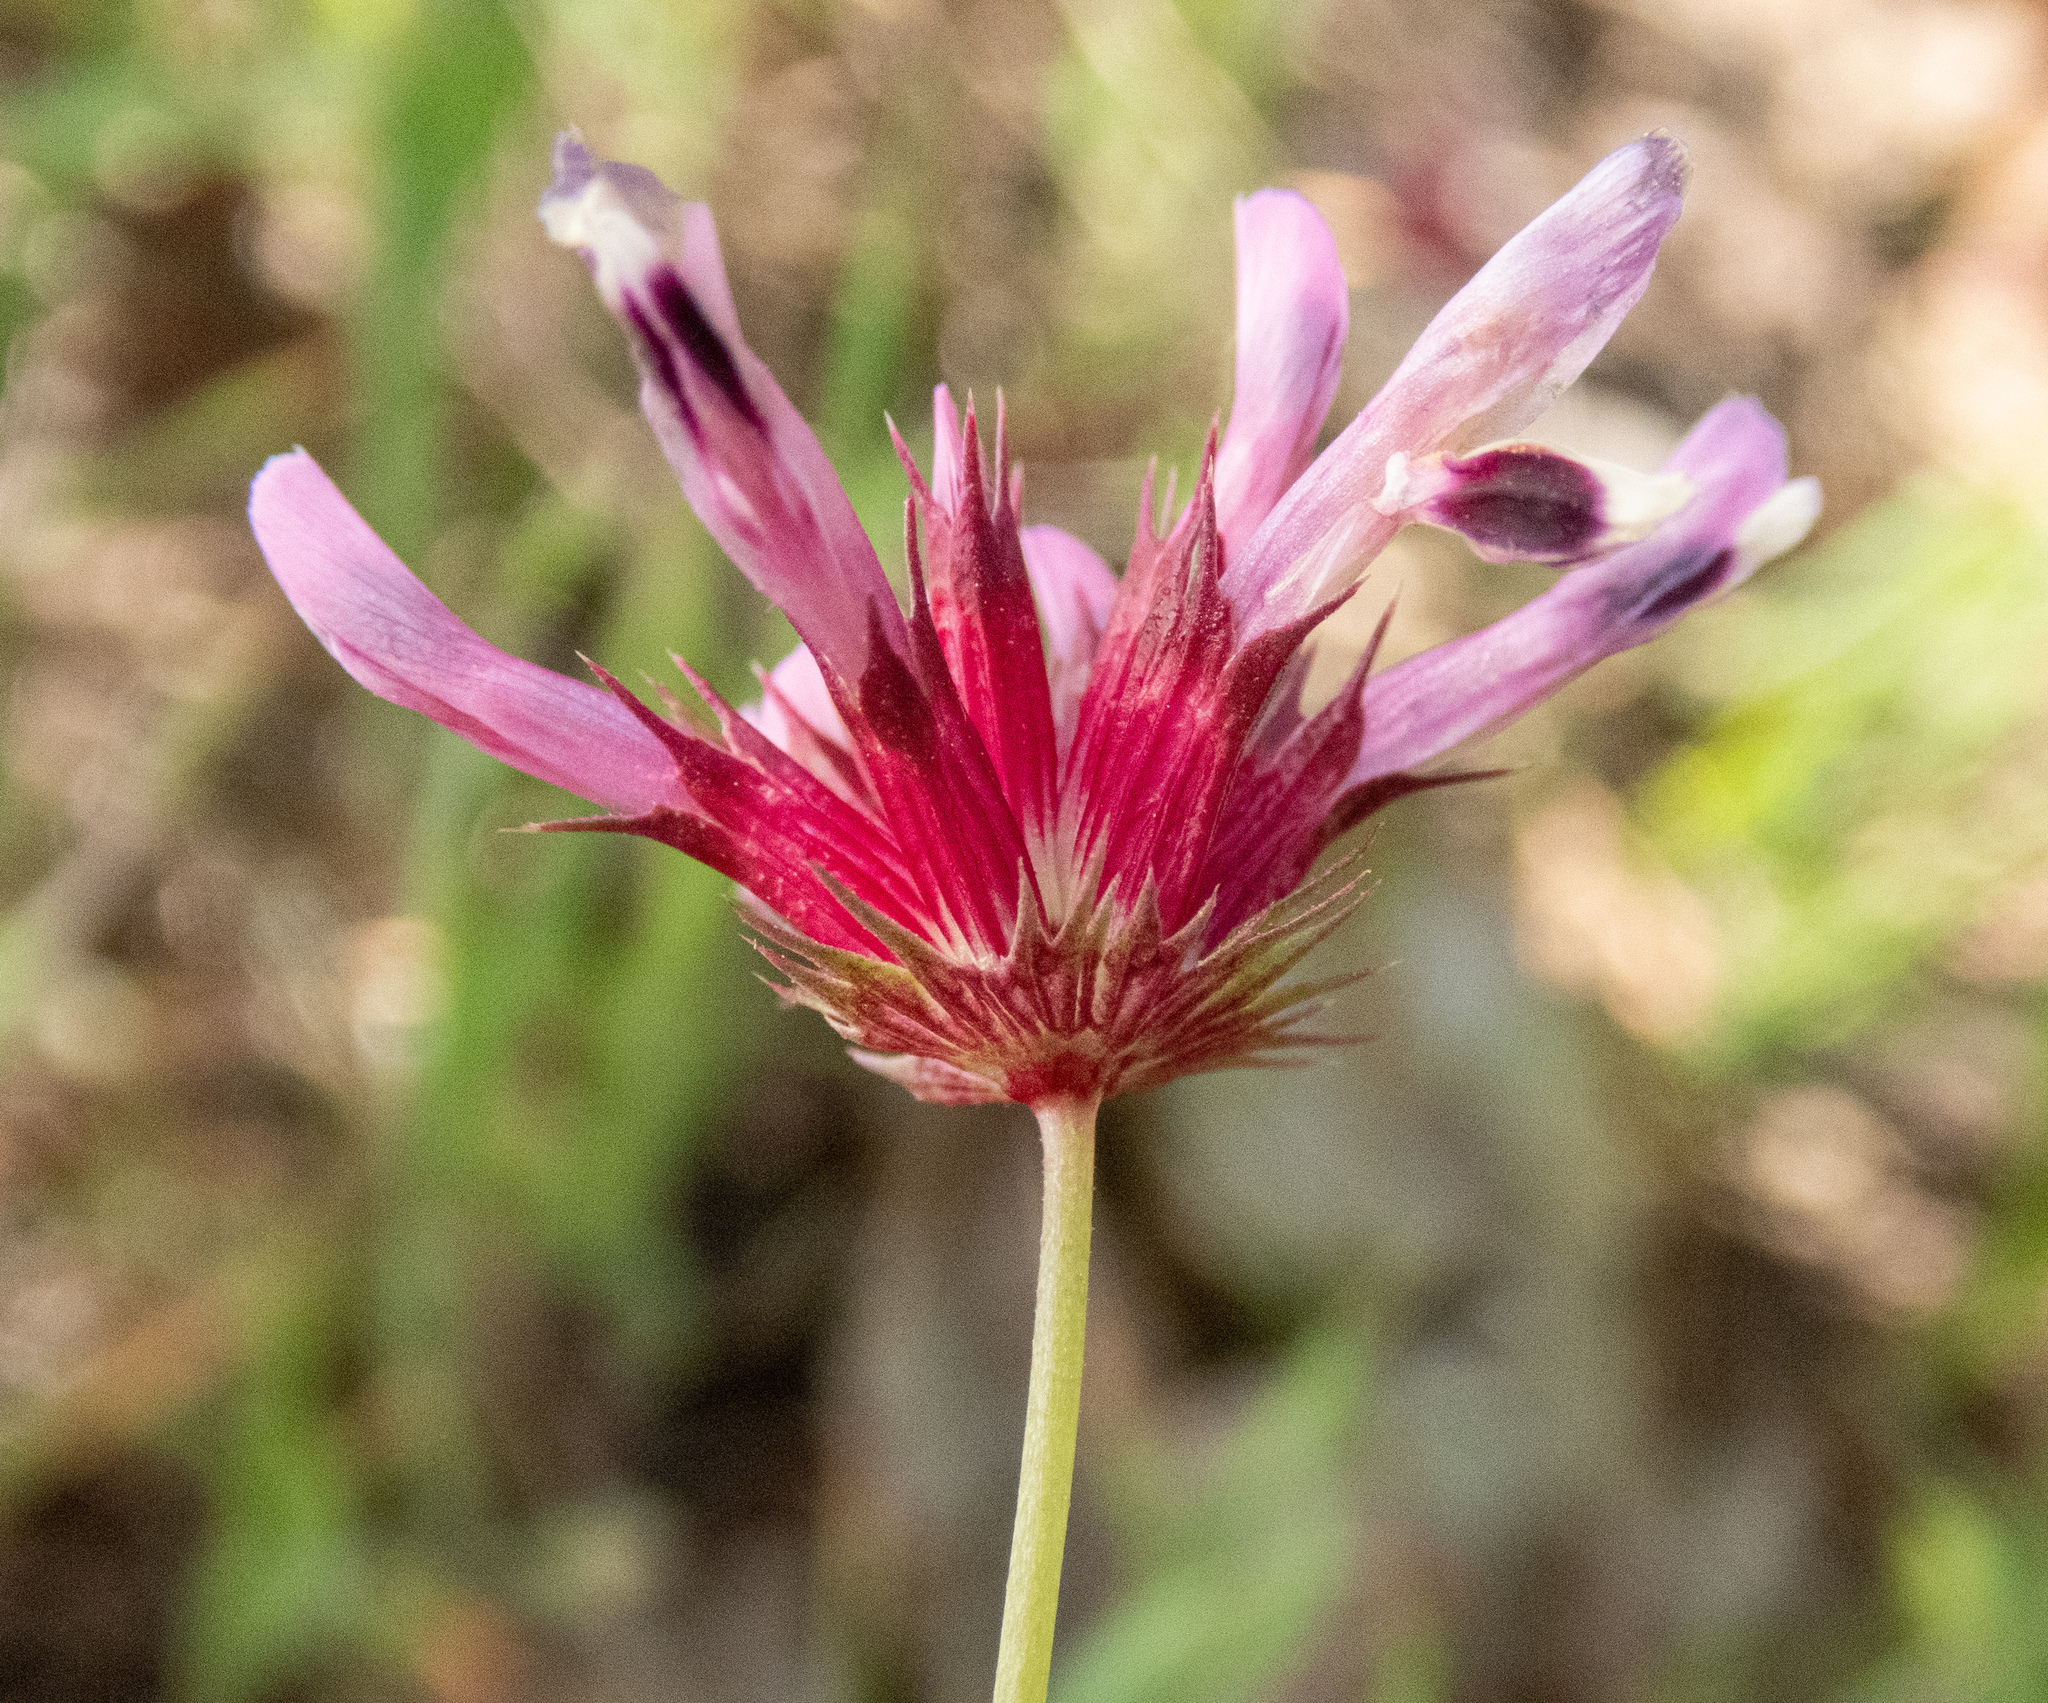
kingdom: Plantae
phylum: Tracheophyta
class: Magnoliopsida
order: Fabales
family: Fabaceae
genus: Trifolium
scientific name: Trifolium willdenovii
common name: Tomcat clover
